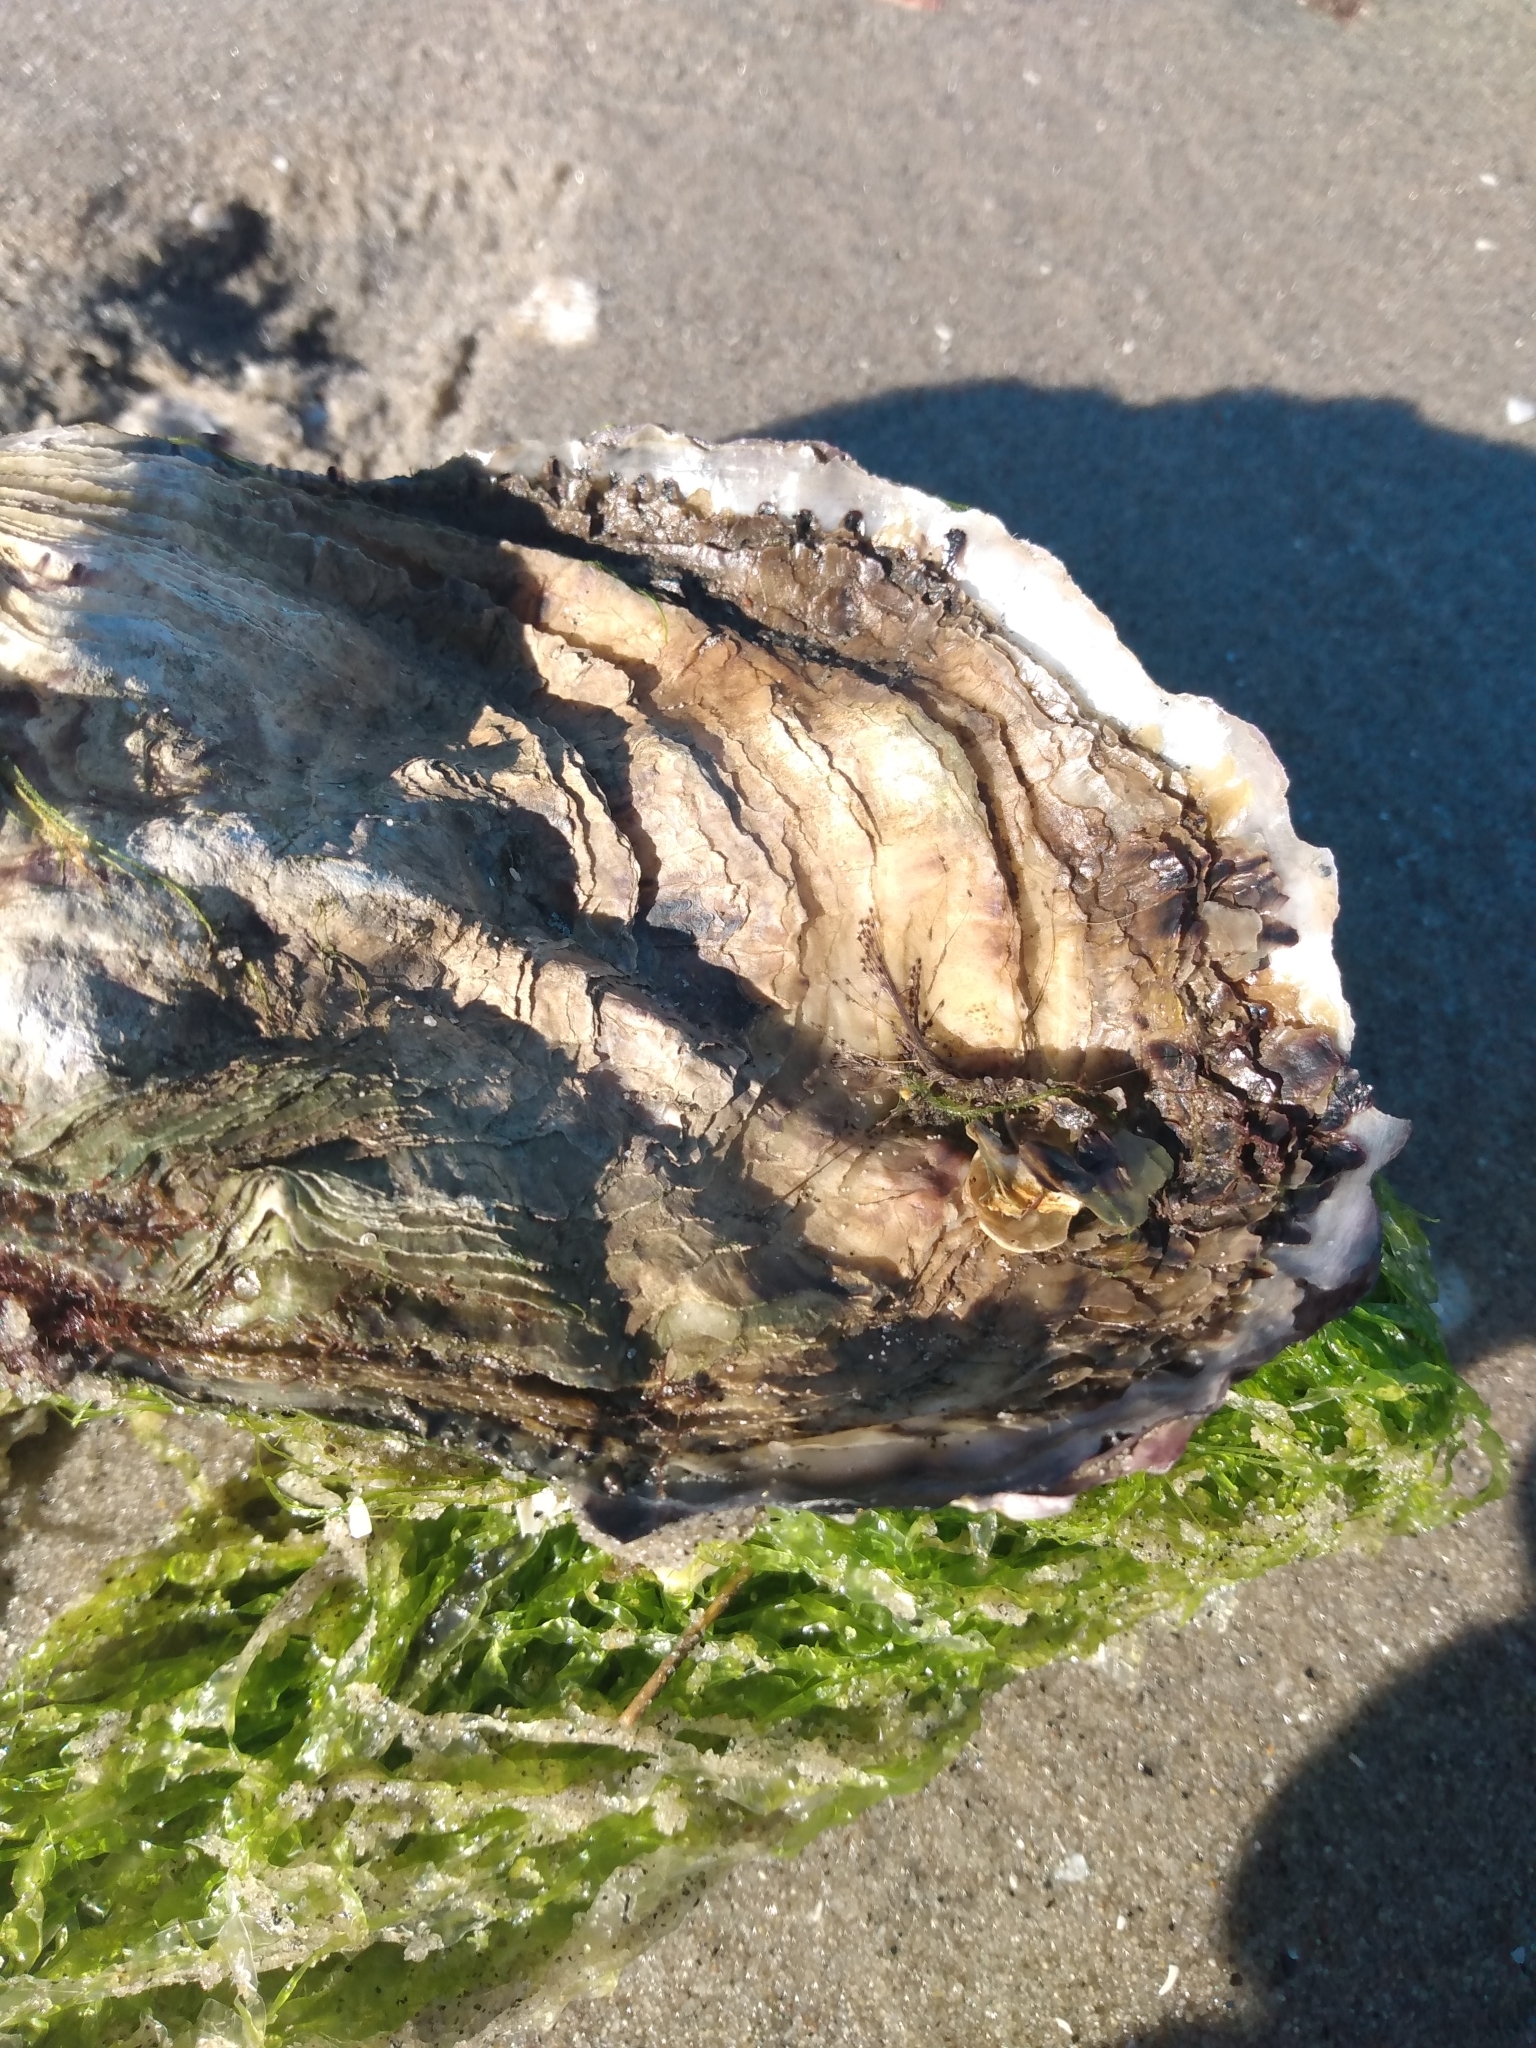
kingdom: Animalia
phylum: Mollusca
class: Bivalvia
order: Ostreida
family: Ostreidae
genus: Magallana
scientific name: Magallana gigas
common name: Pacific oyster
